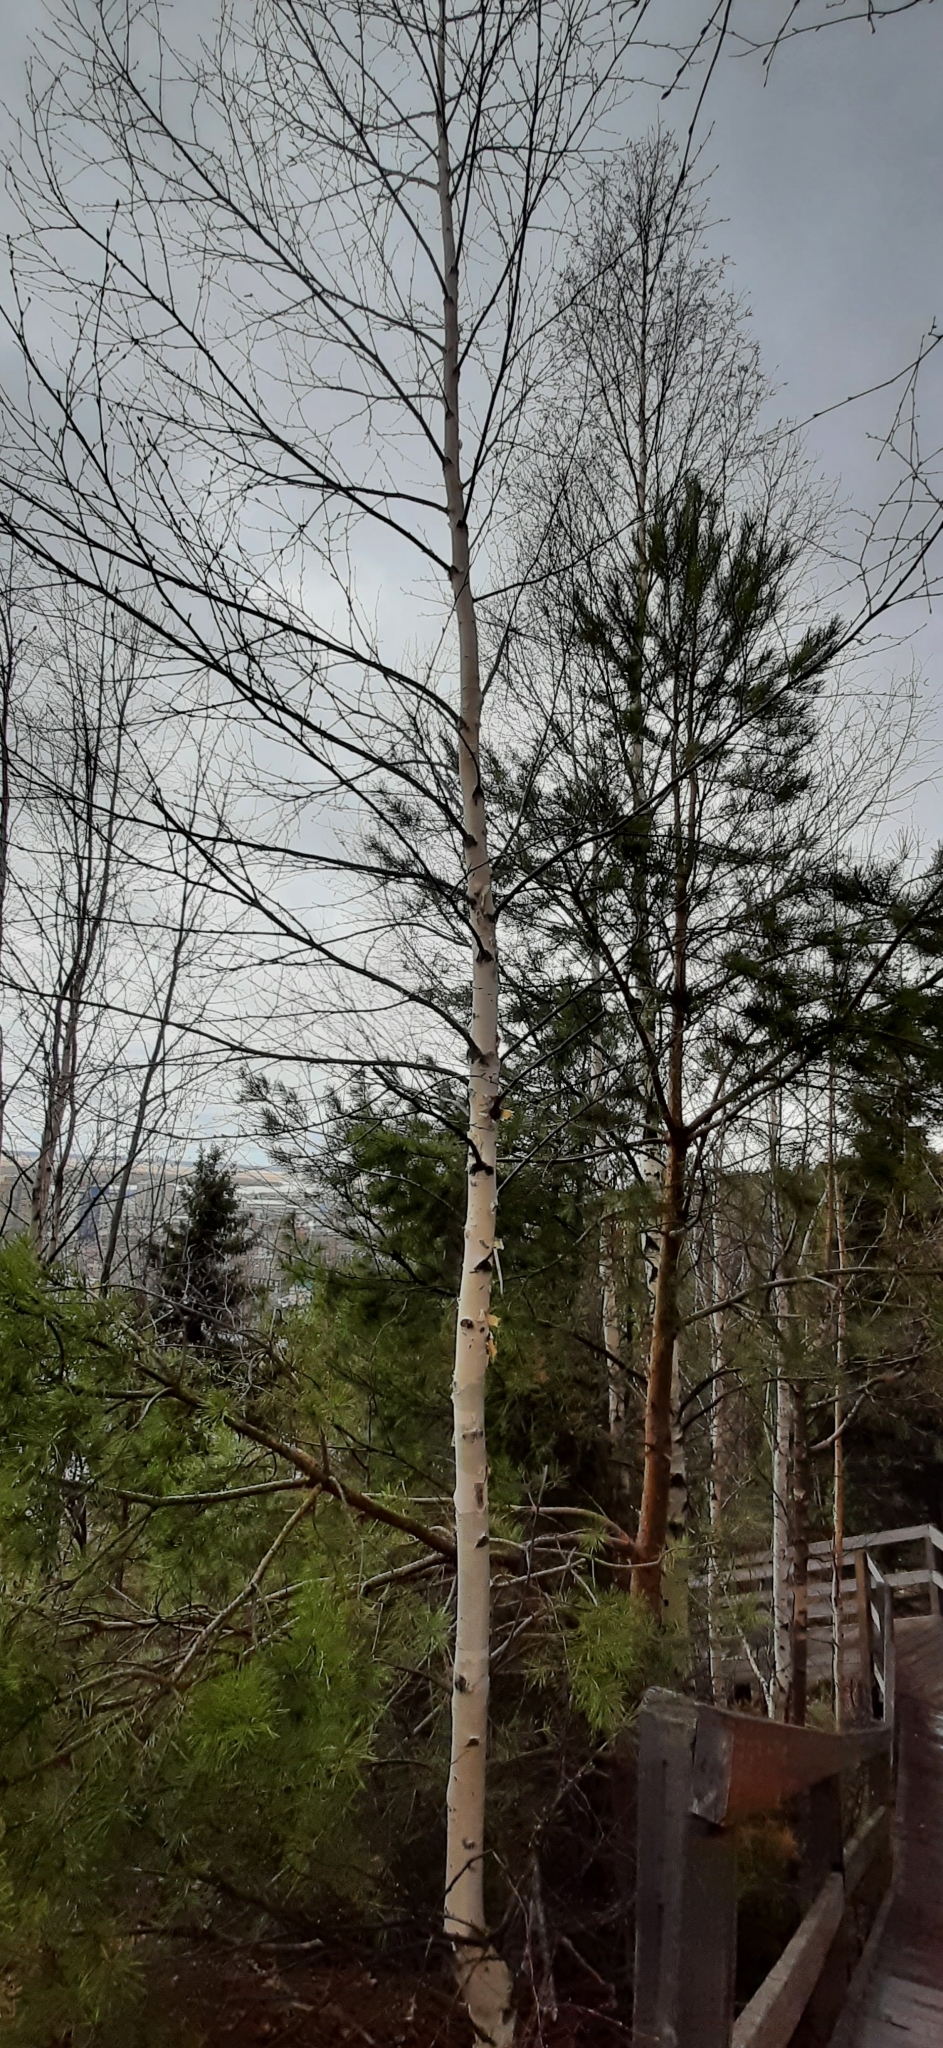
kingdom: Plantae
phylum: Tracheophyta
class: Magnoliopsida
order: Fagales
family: Betulaceae
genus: Betula
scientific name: Betula pendula
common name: Silver birch
